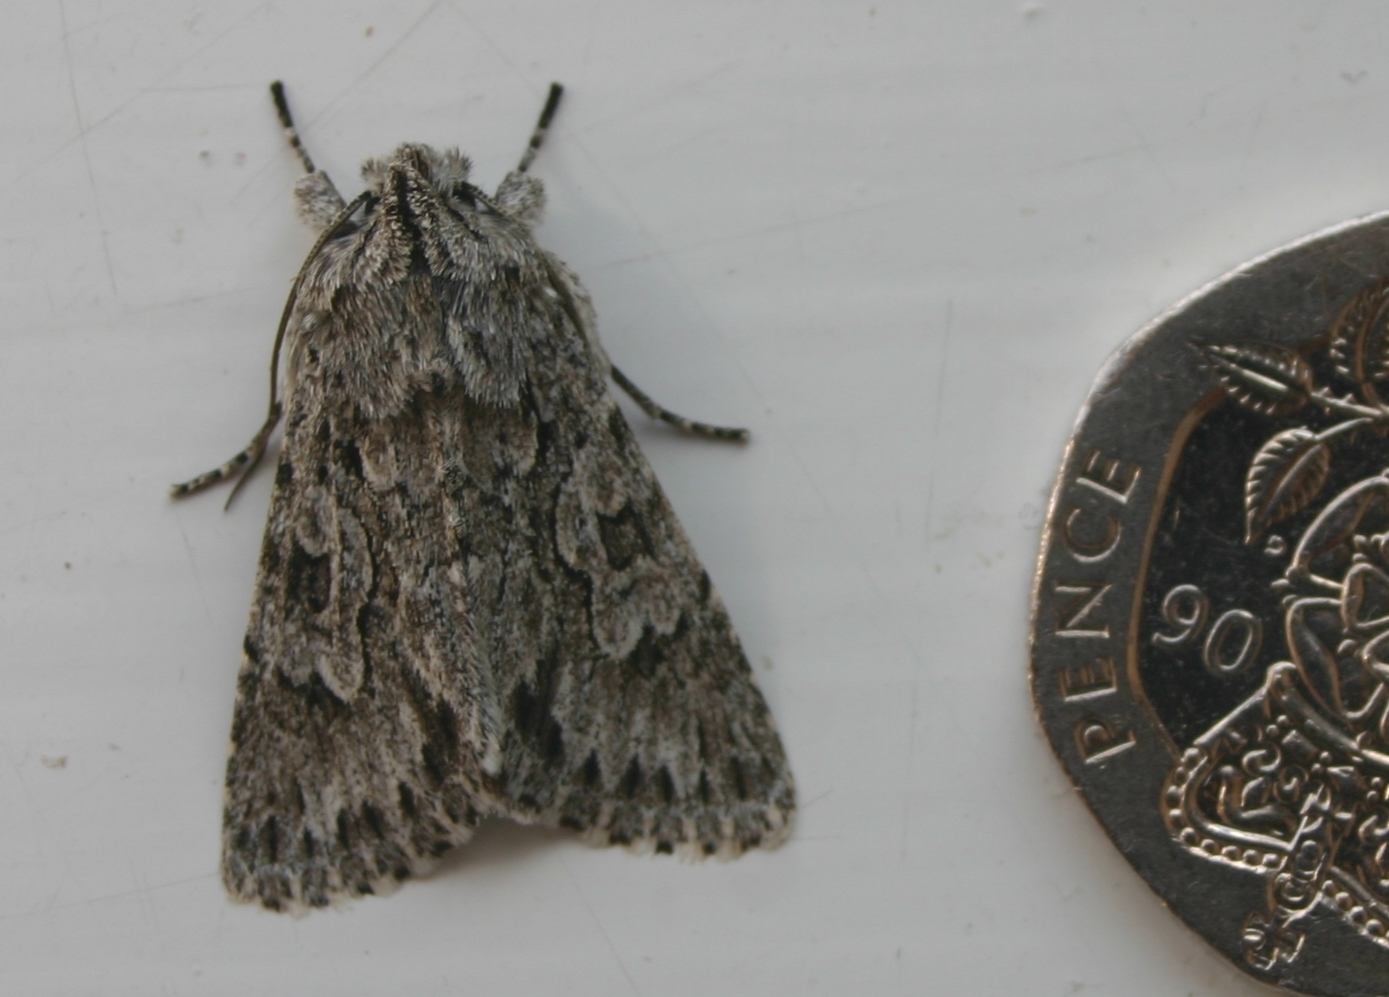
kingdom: Animalia
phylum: Arthropoda
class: Insecta
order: Lepidoptera
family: Noctuidae
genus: Xylocampa
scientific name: Xylocampa areola
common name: Early grey
